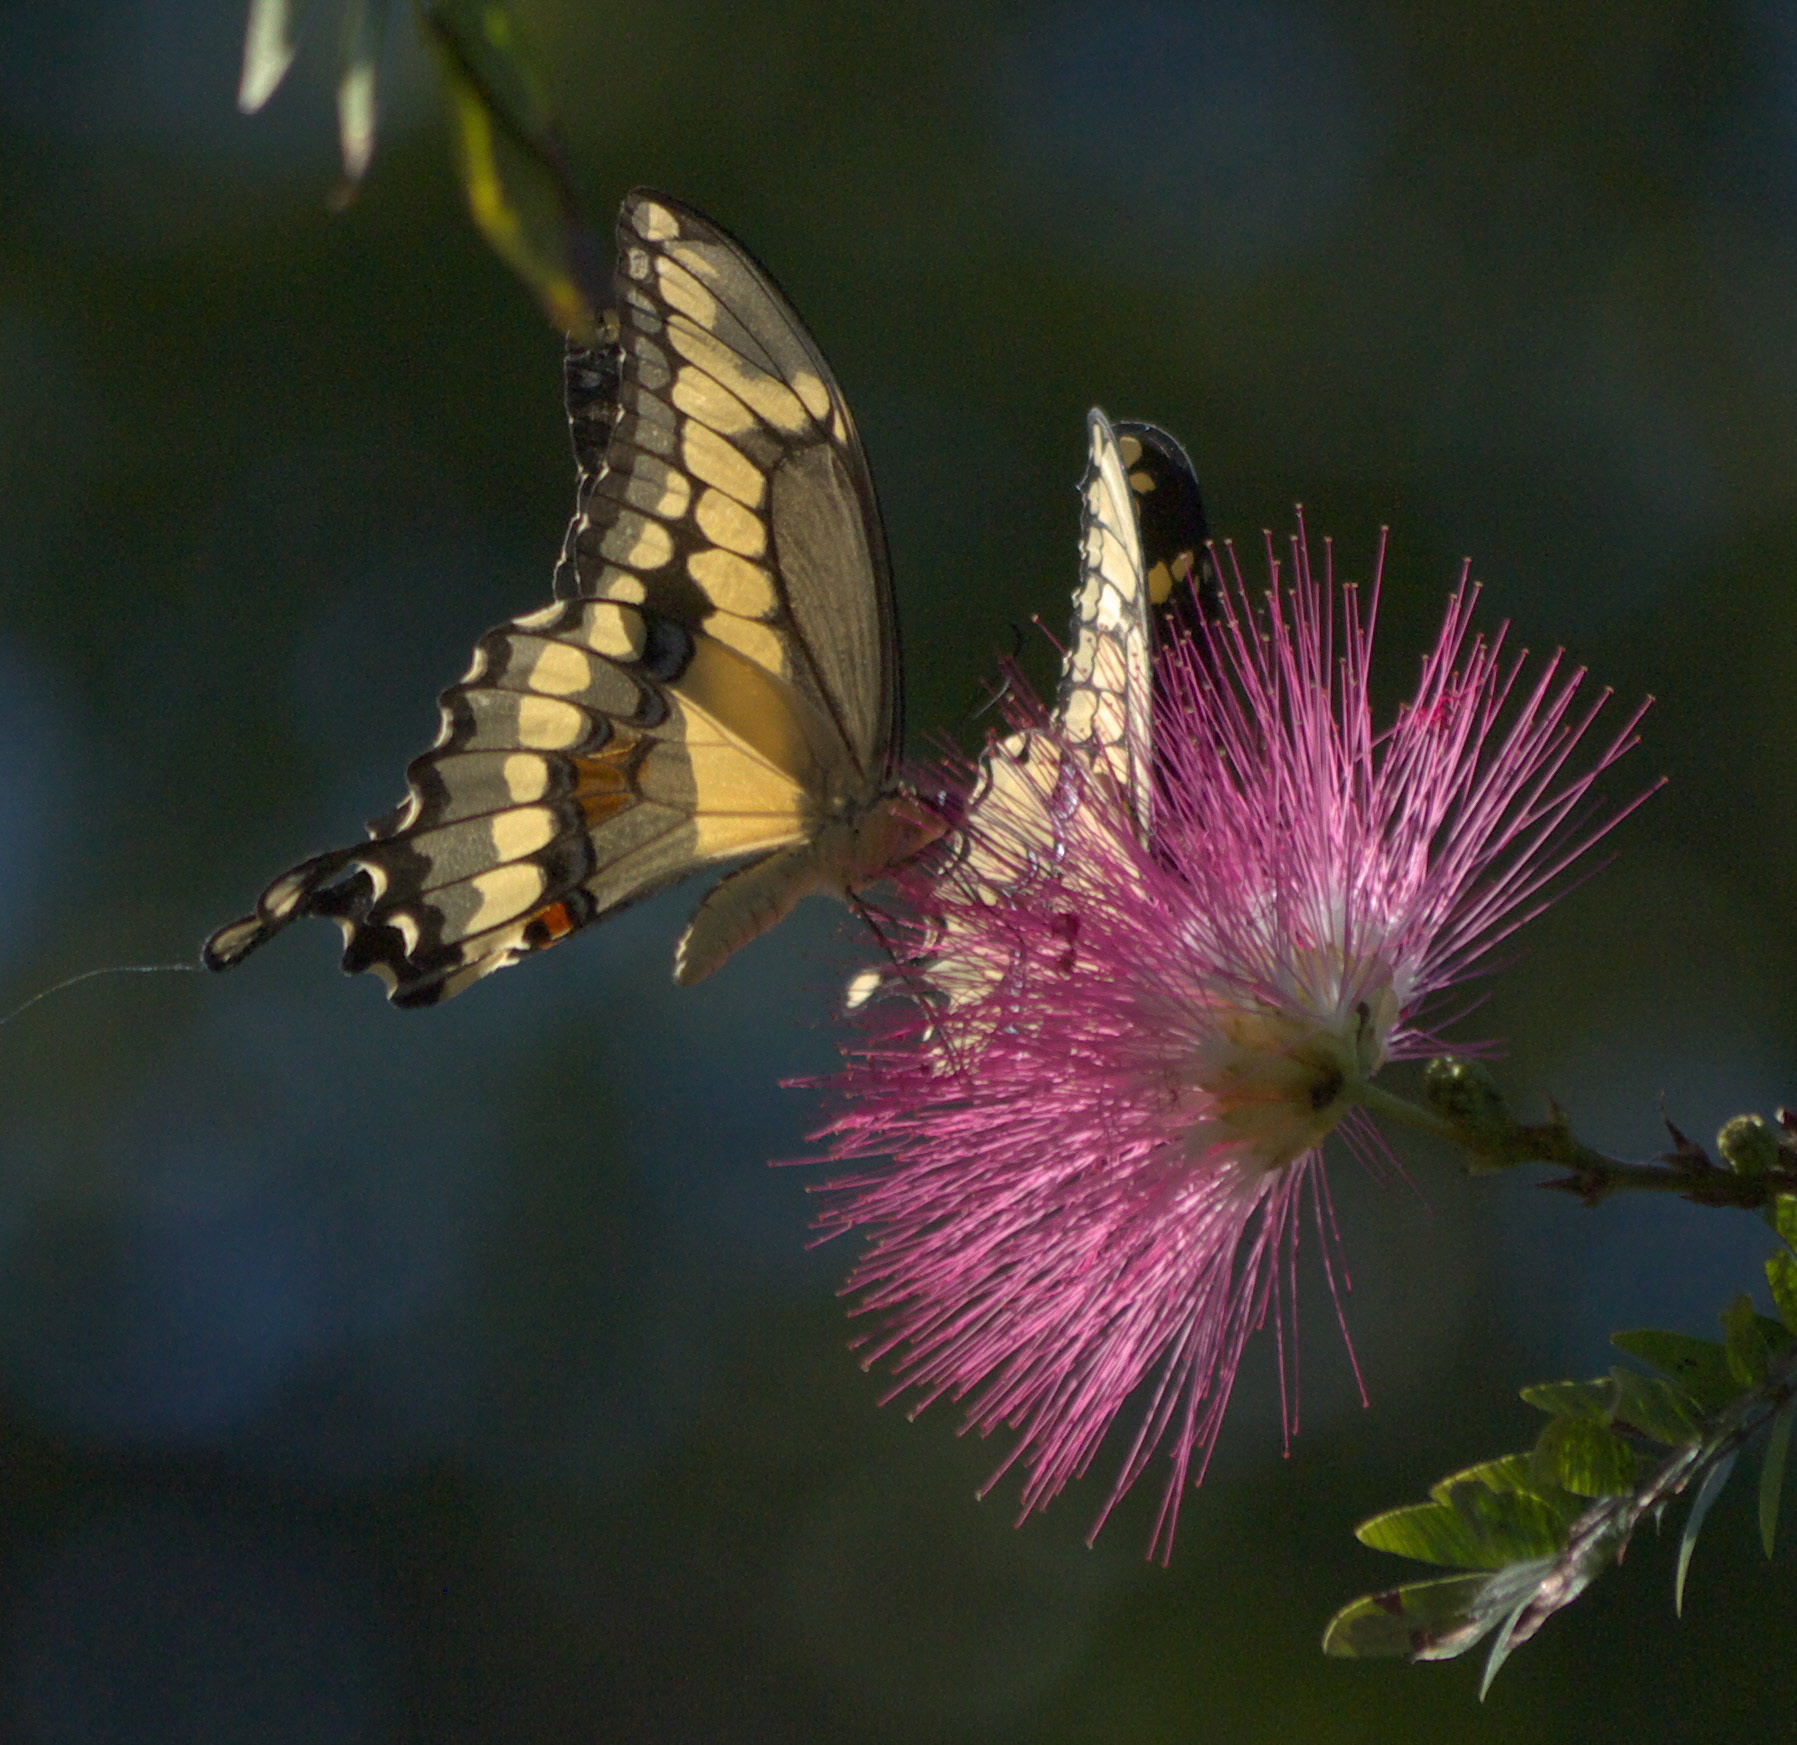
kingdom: Animalia
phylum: Arthropoda
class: Insecta
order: Lepidoptera
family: Papilionidae
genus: Papilio
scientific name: Papilio cresphontes
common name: Giant swallowtail
